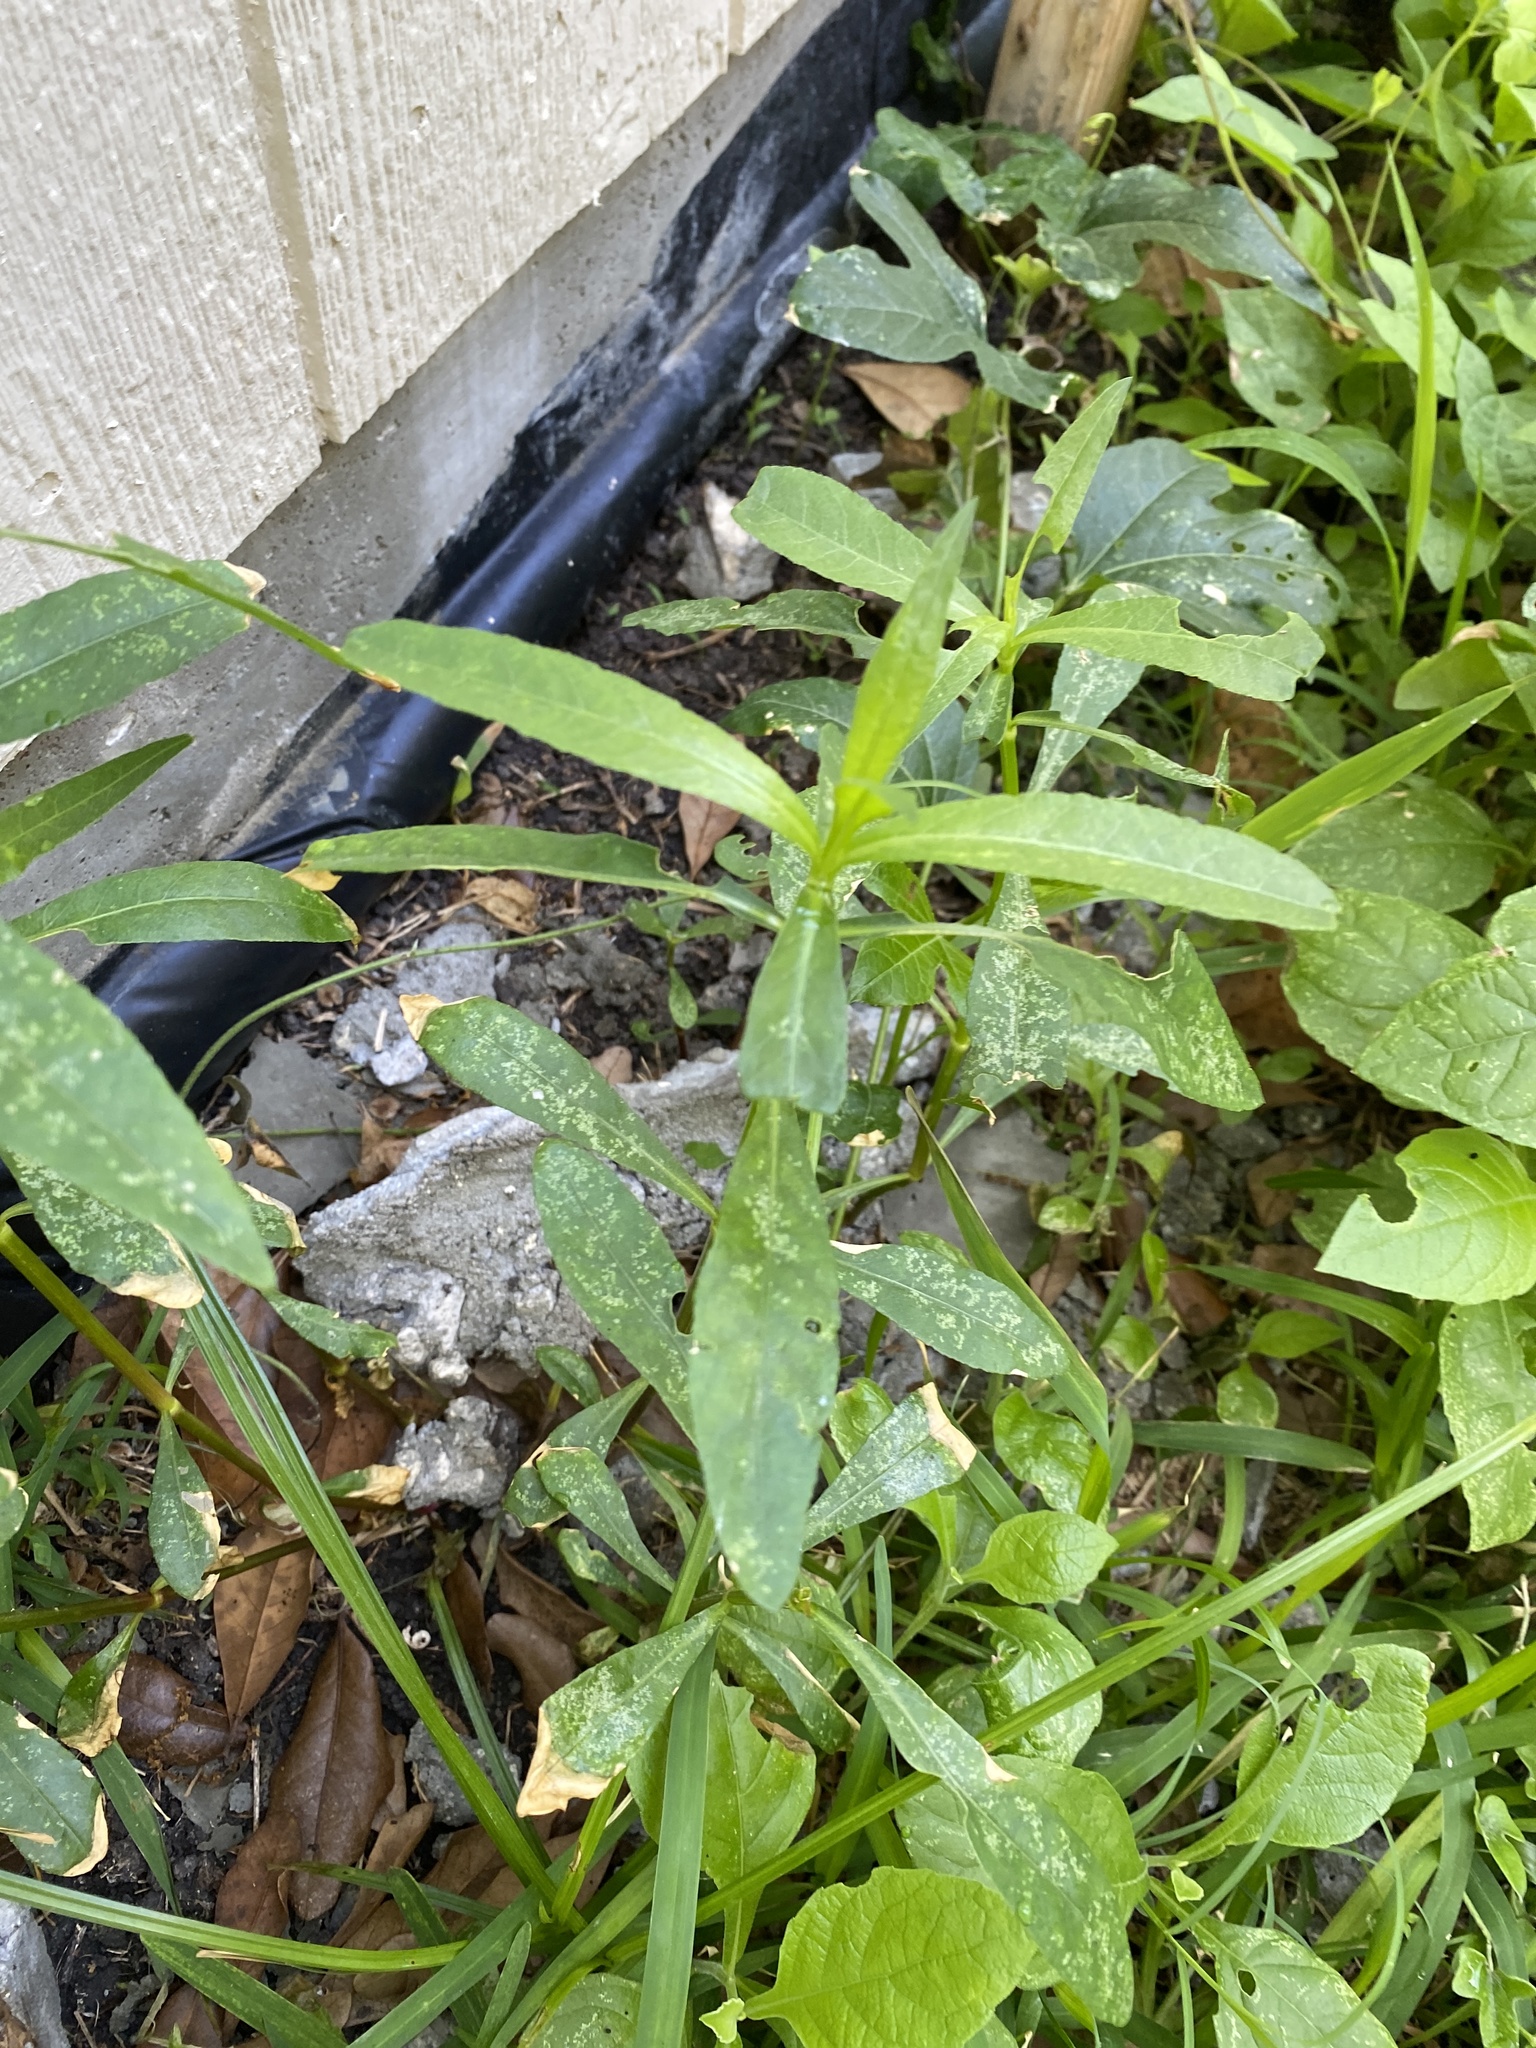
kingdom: Plantae
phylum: Tracheophyta
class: Magnoliopsida
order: Caryophyllales
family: Amaranthaceae
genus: Alternanthera
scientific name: Alternanthera philoxeroides
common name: Alligatorweed
